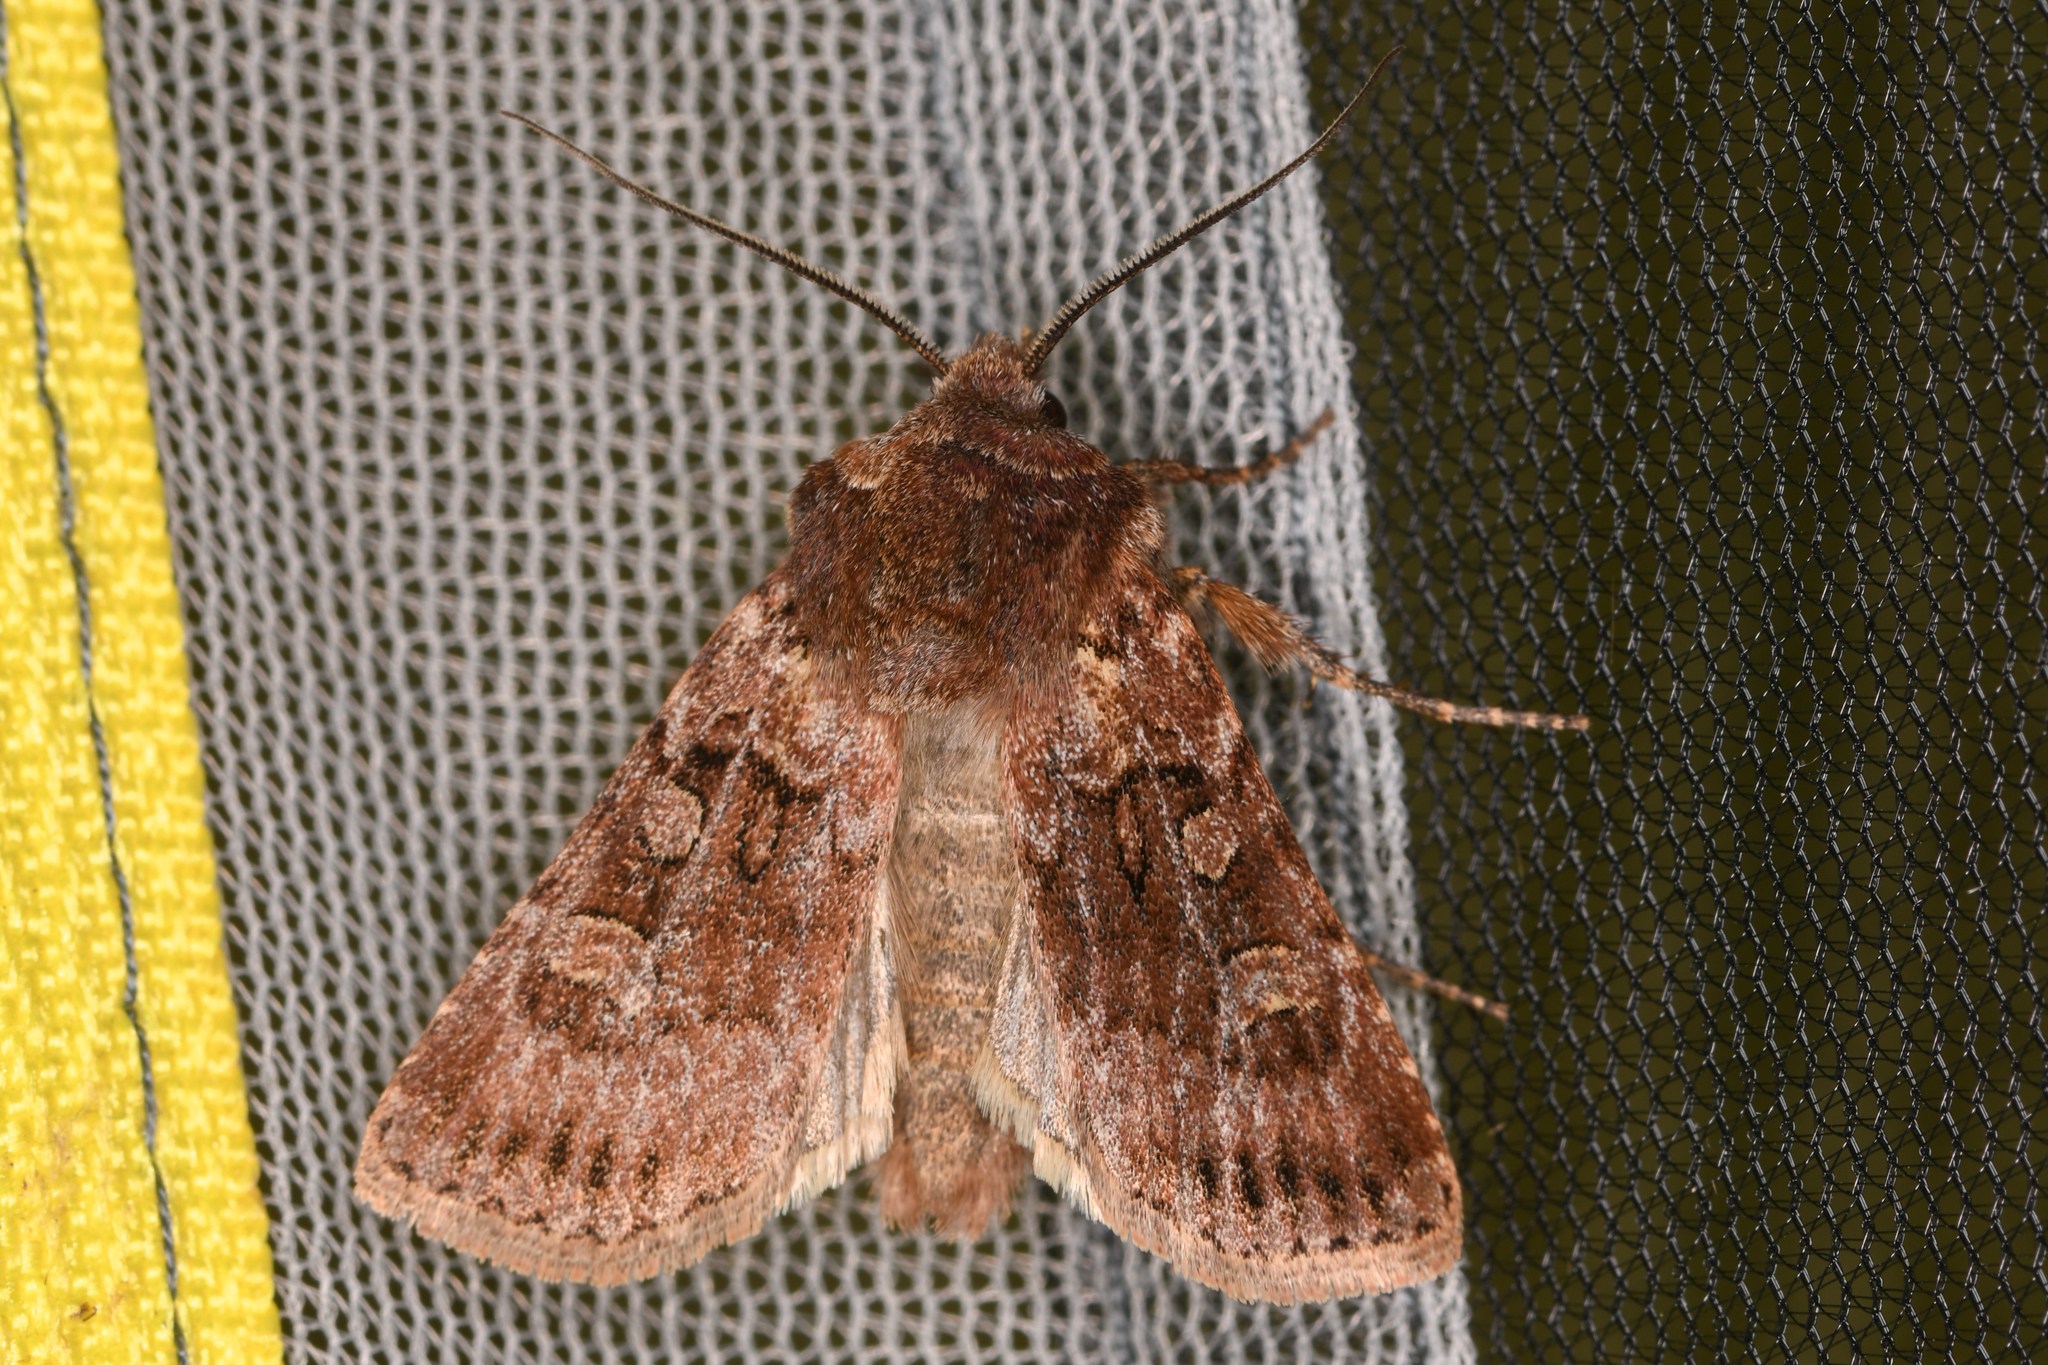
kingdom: Animalia
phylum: Arthropoda
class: Insecta
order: Lepidoptera
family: Noctuidae
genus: Euxoa
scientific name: Euxoa rufula
